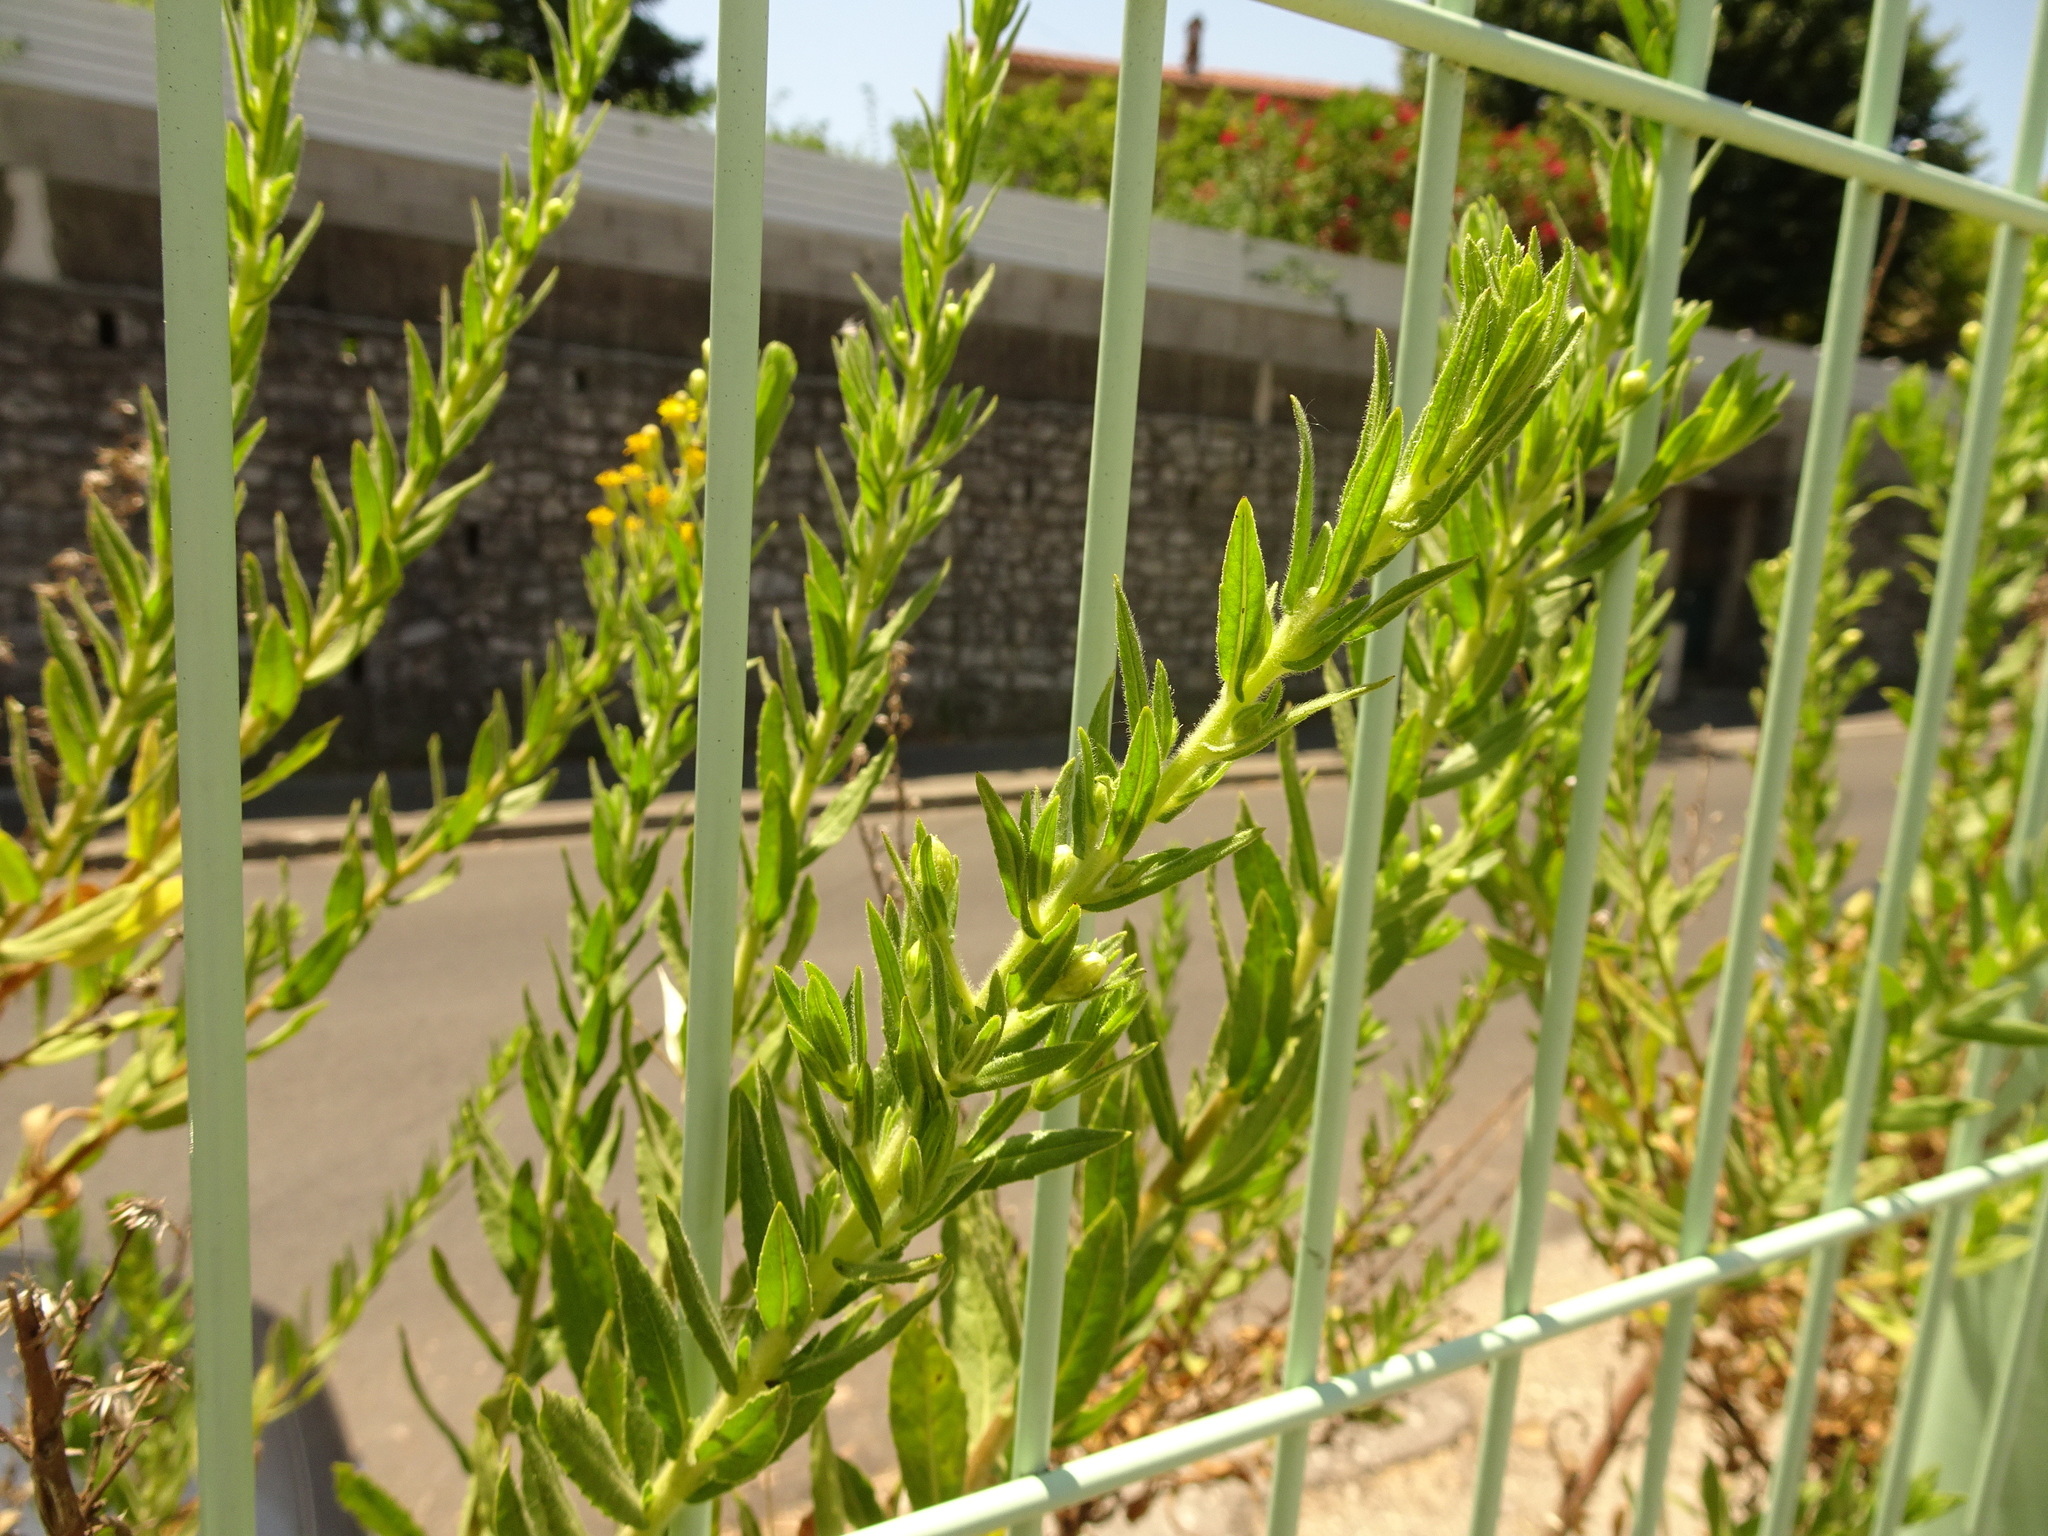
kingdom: Plantae
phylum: Tracheophyta
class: Magnoliopsida
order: Asterales
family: Asteraceae
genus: Dittrichia
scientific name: Dittrichia viscosa
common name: Woody fleabane
